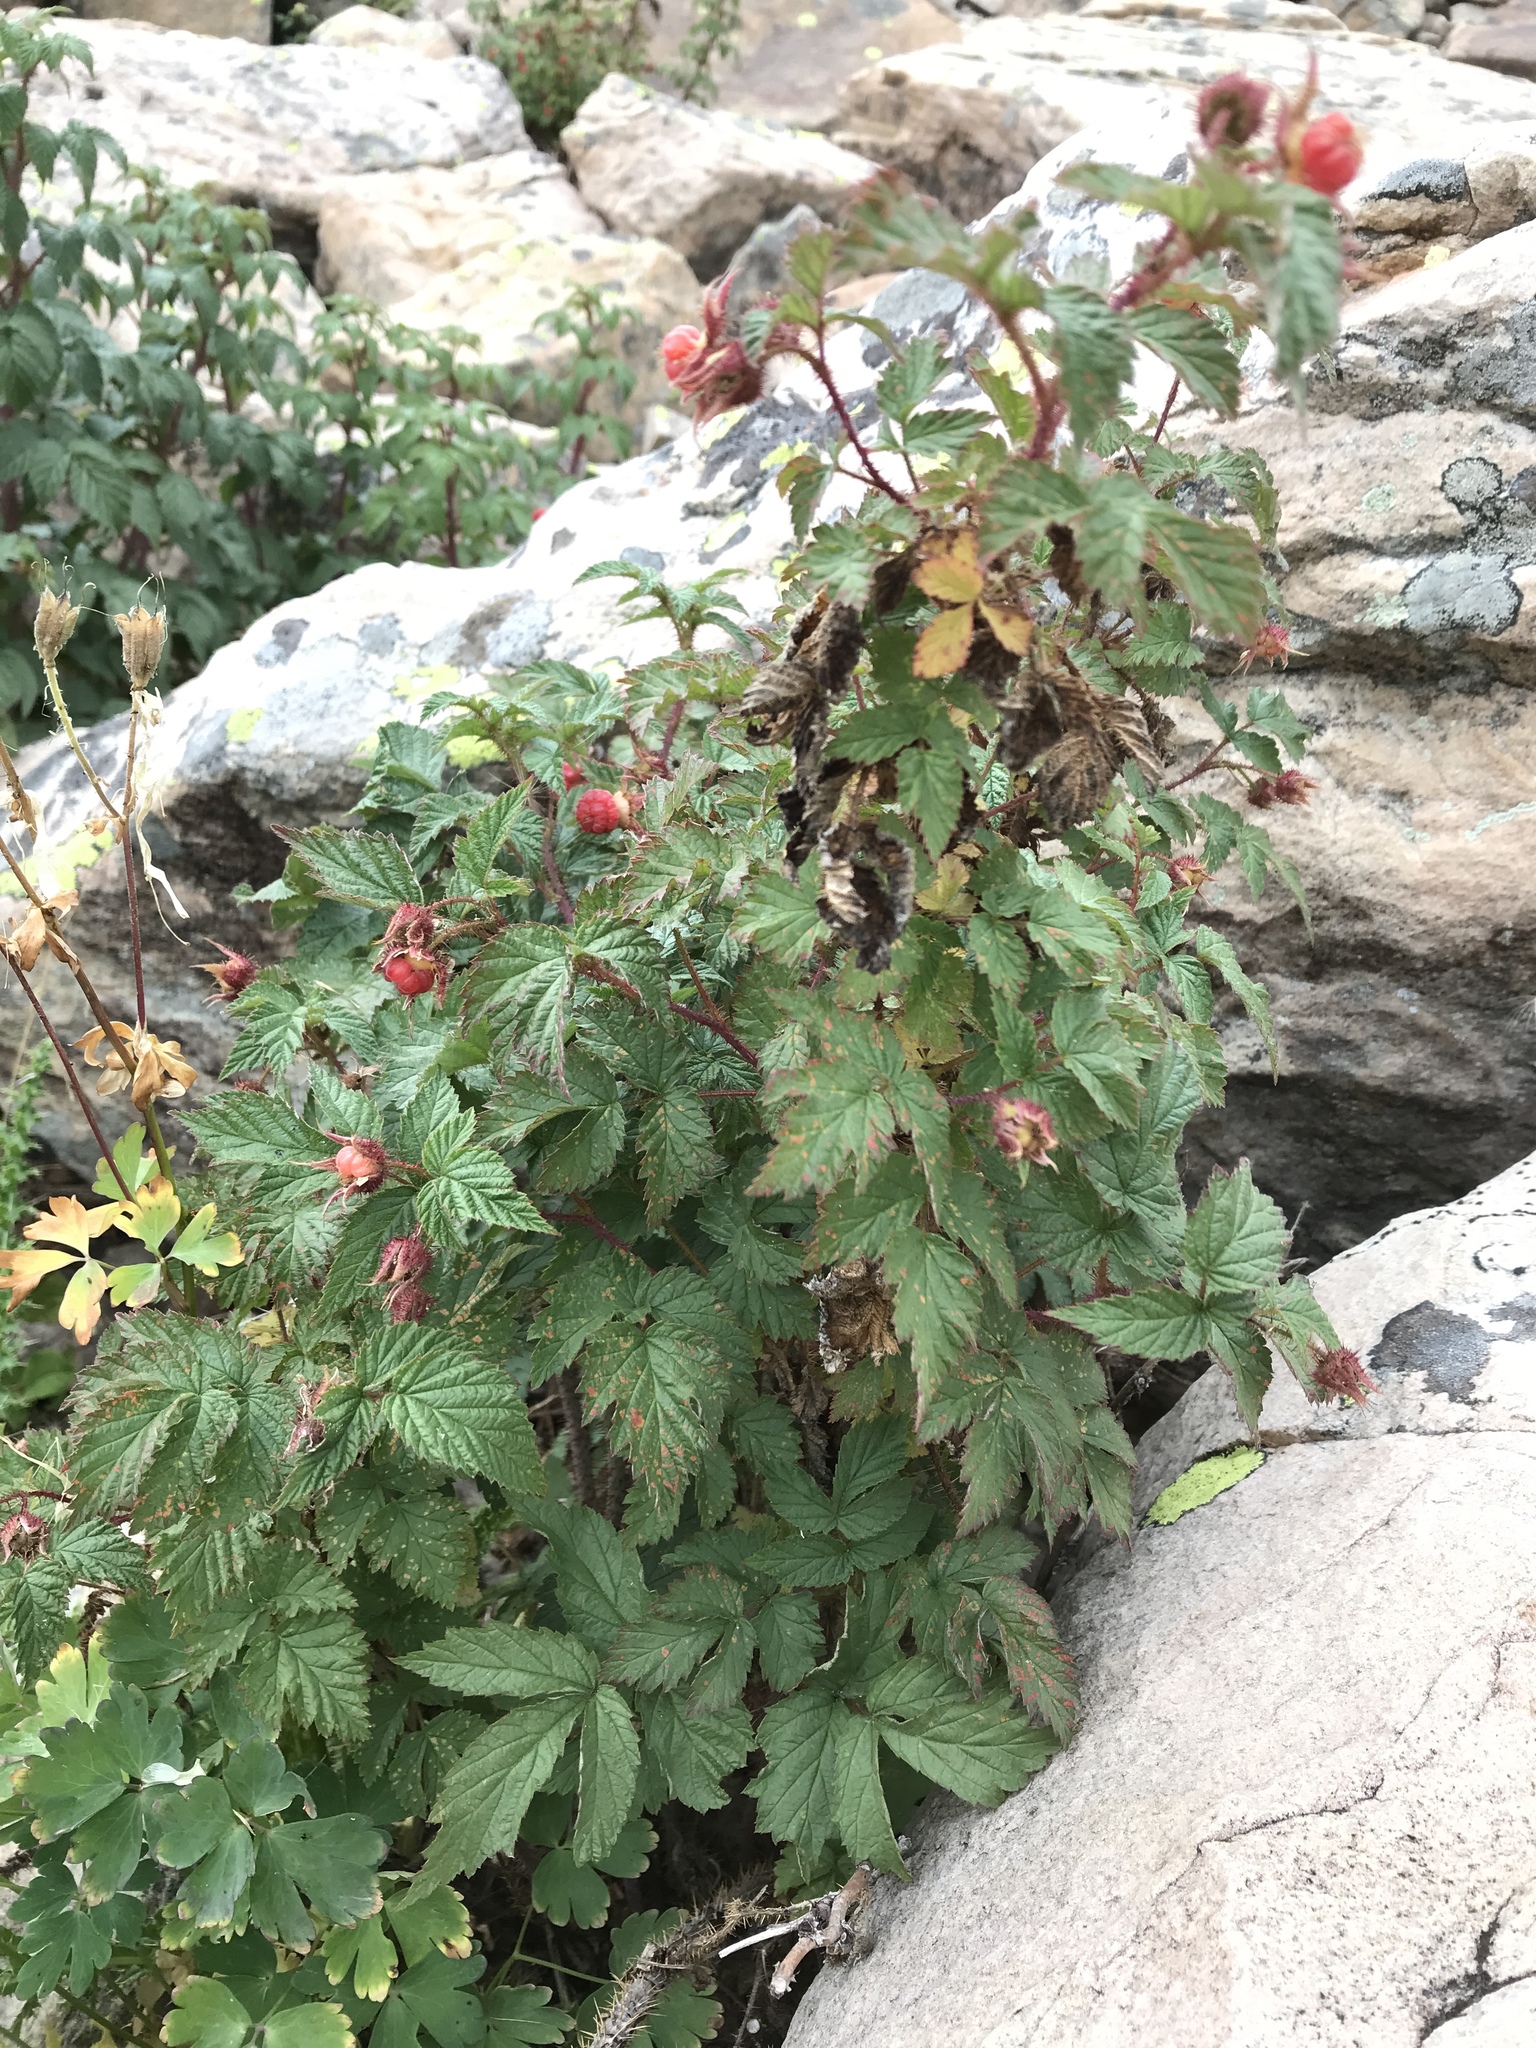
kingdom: Plantae
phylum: Tracheophyta
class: Magnoliopsida
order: Rosales
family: Rosaceae
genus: Rubus
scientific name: Rubus idaeus
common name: Raspberry
